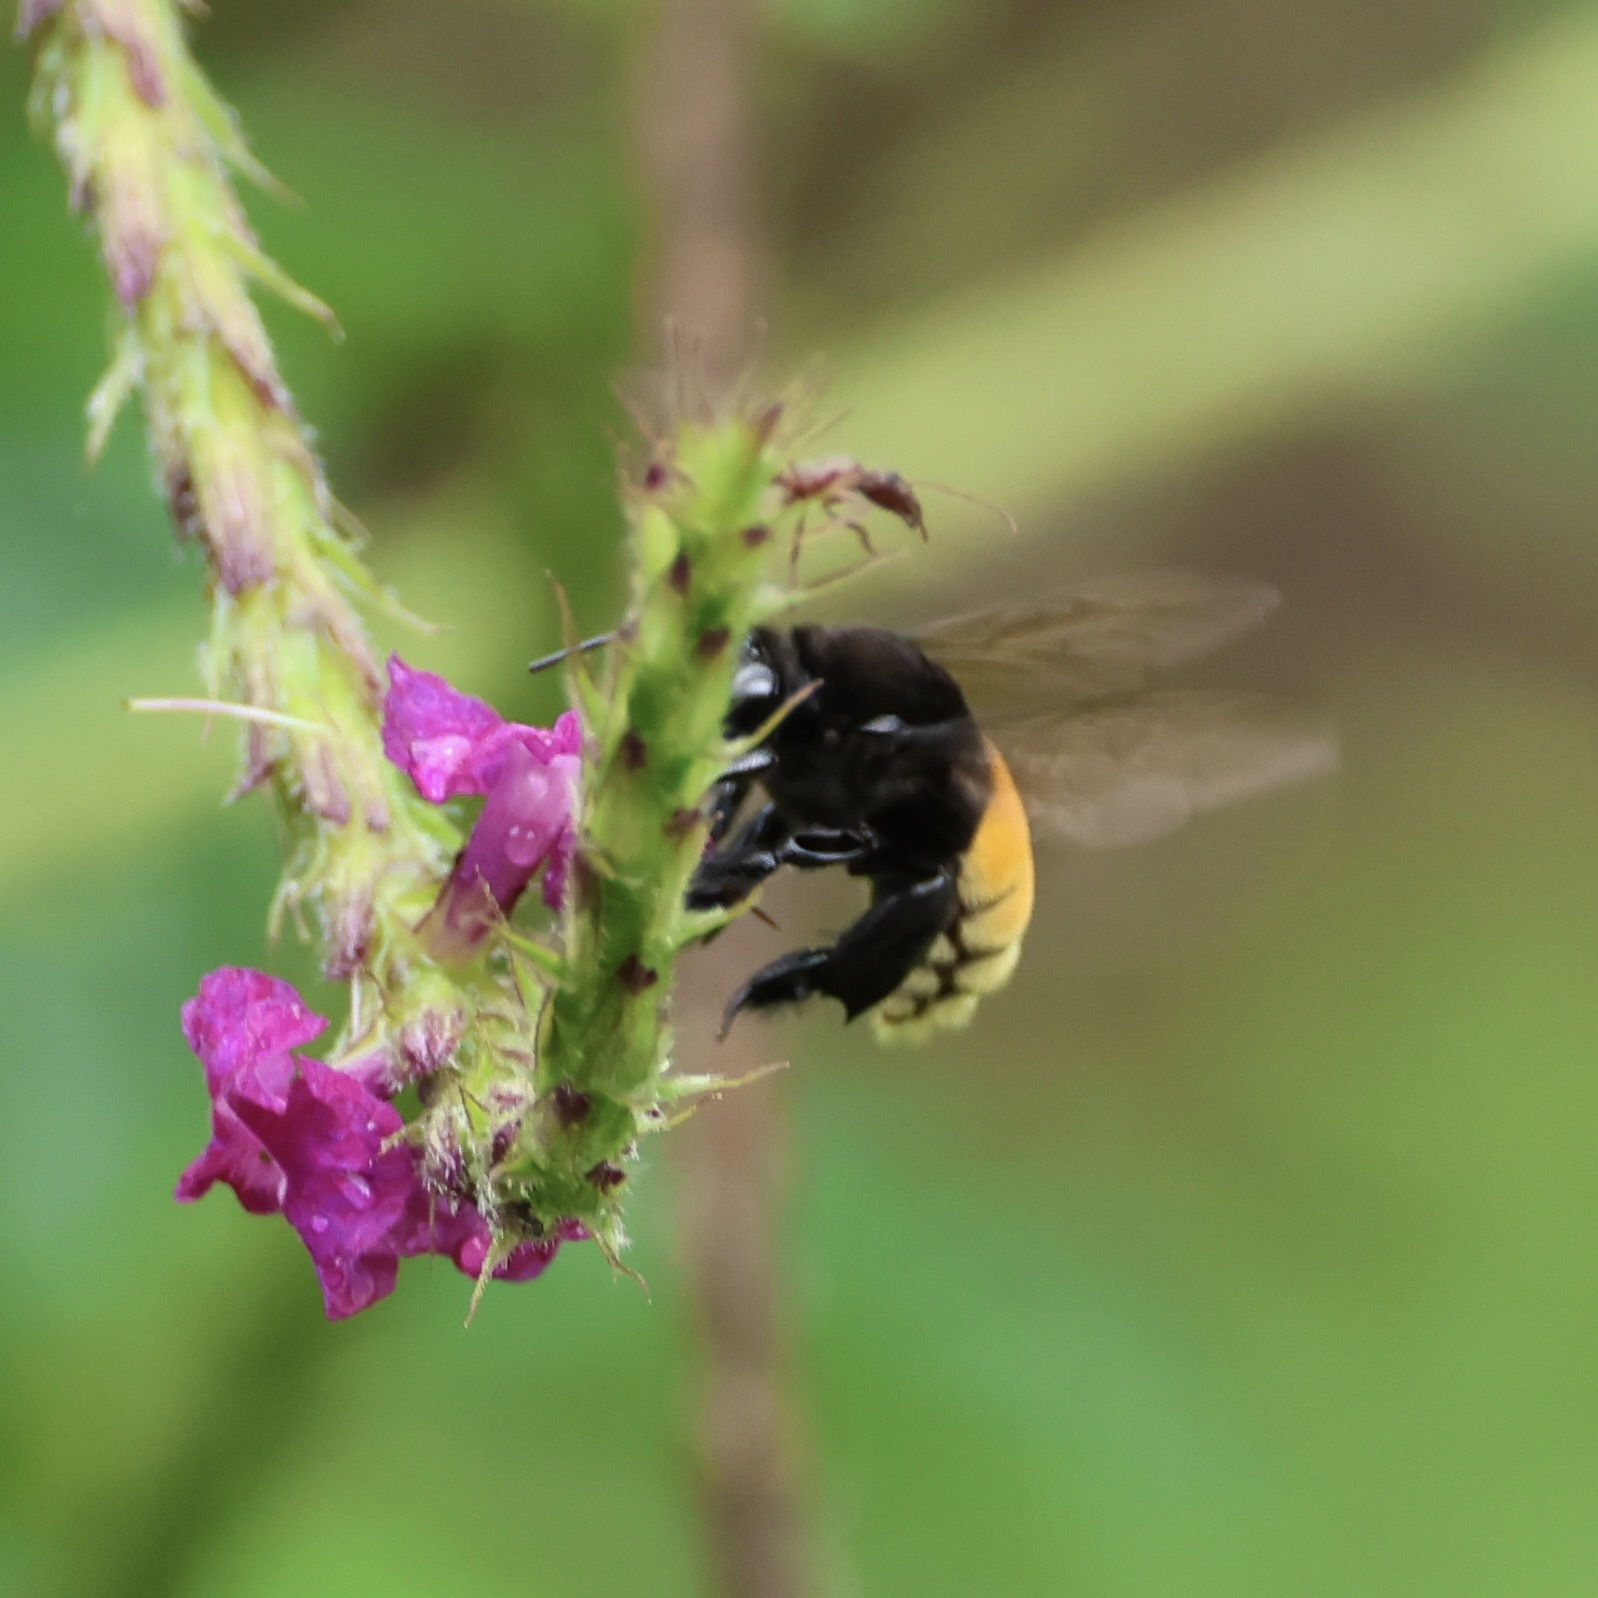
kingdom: Animalia
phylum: Arthropoda
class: Insecta
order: Hymenoptera
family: Apidae
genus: Eulaema
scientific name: Eulaema polychroma
